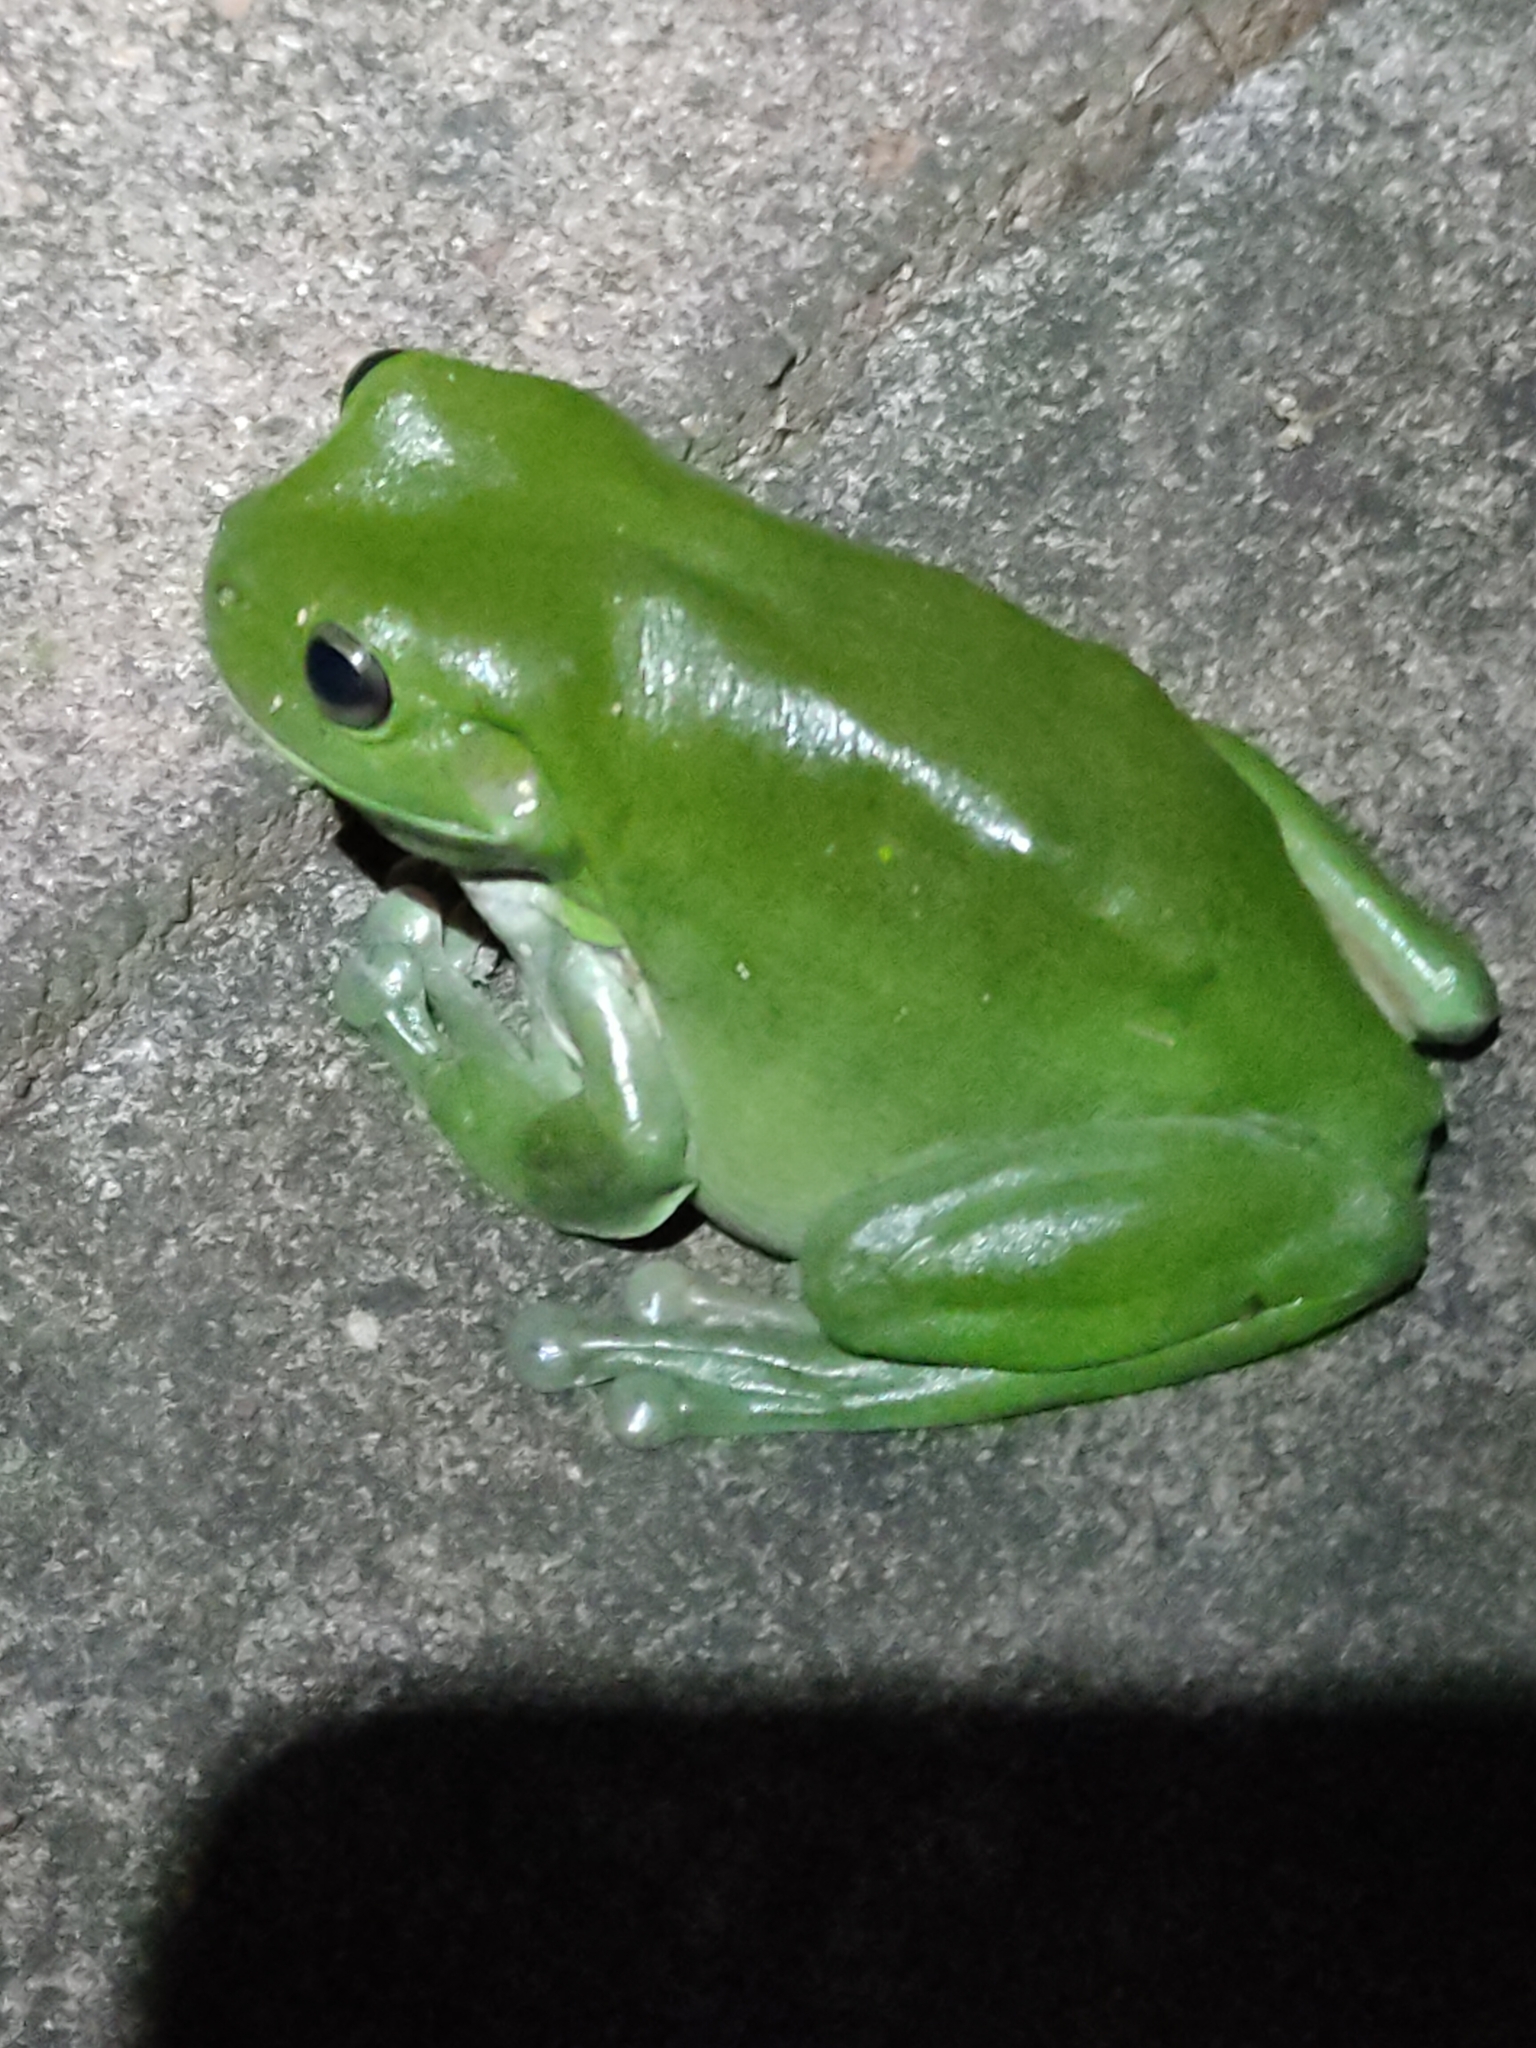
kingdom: Animalia
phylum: Chordata
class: Amphibia
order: Anura
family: Pelodryadidae
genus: Ranoidea
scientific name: Ranoidea caerulea
